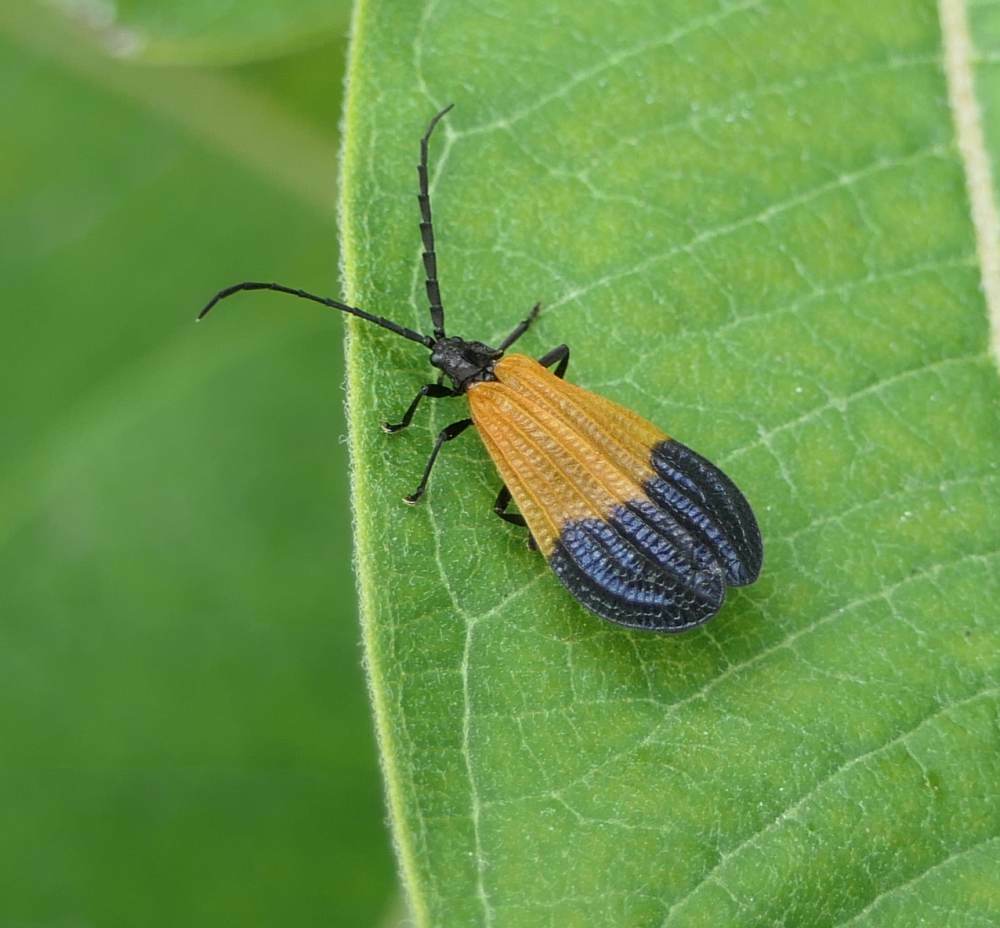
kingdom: Animalia
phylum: Arthropoda
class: Insecta
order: Coleoptera
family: Lycidae
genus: Calopteron
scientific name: Calopteron terminale
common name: End band net-winged beetle
